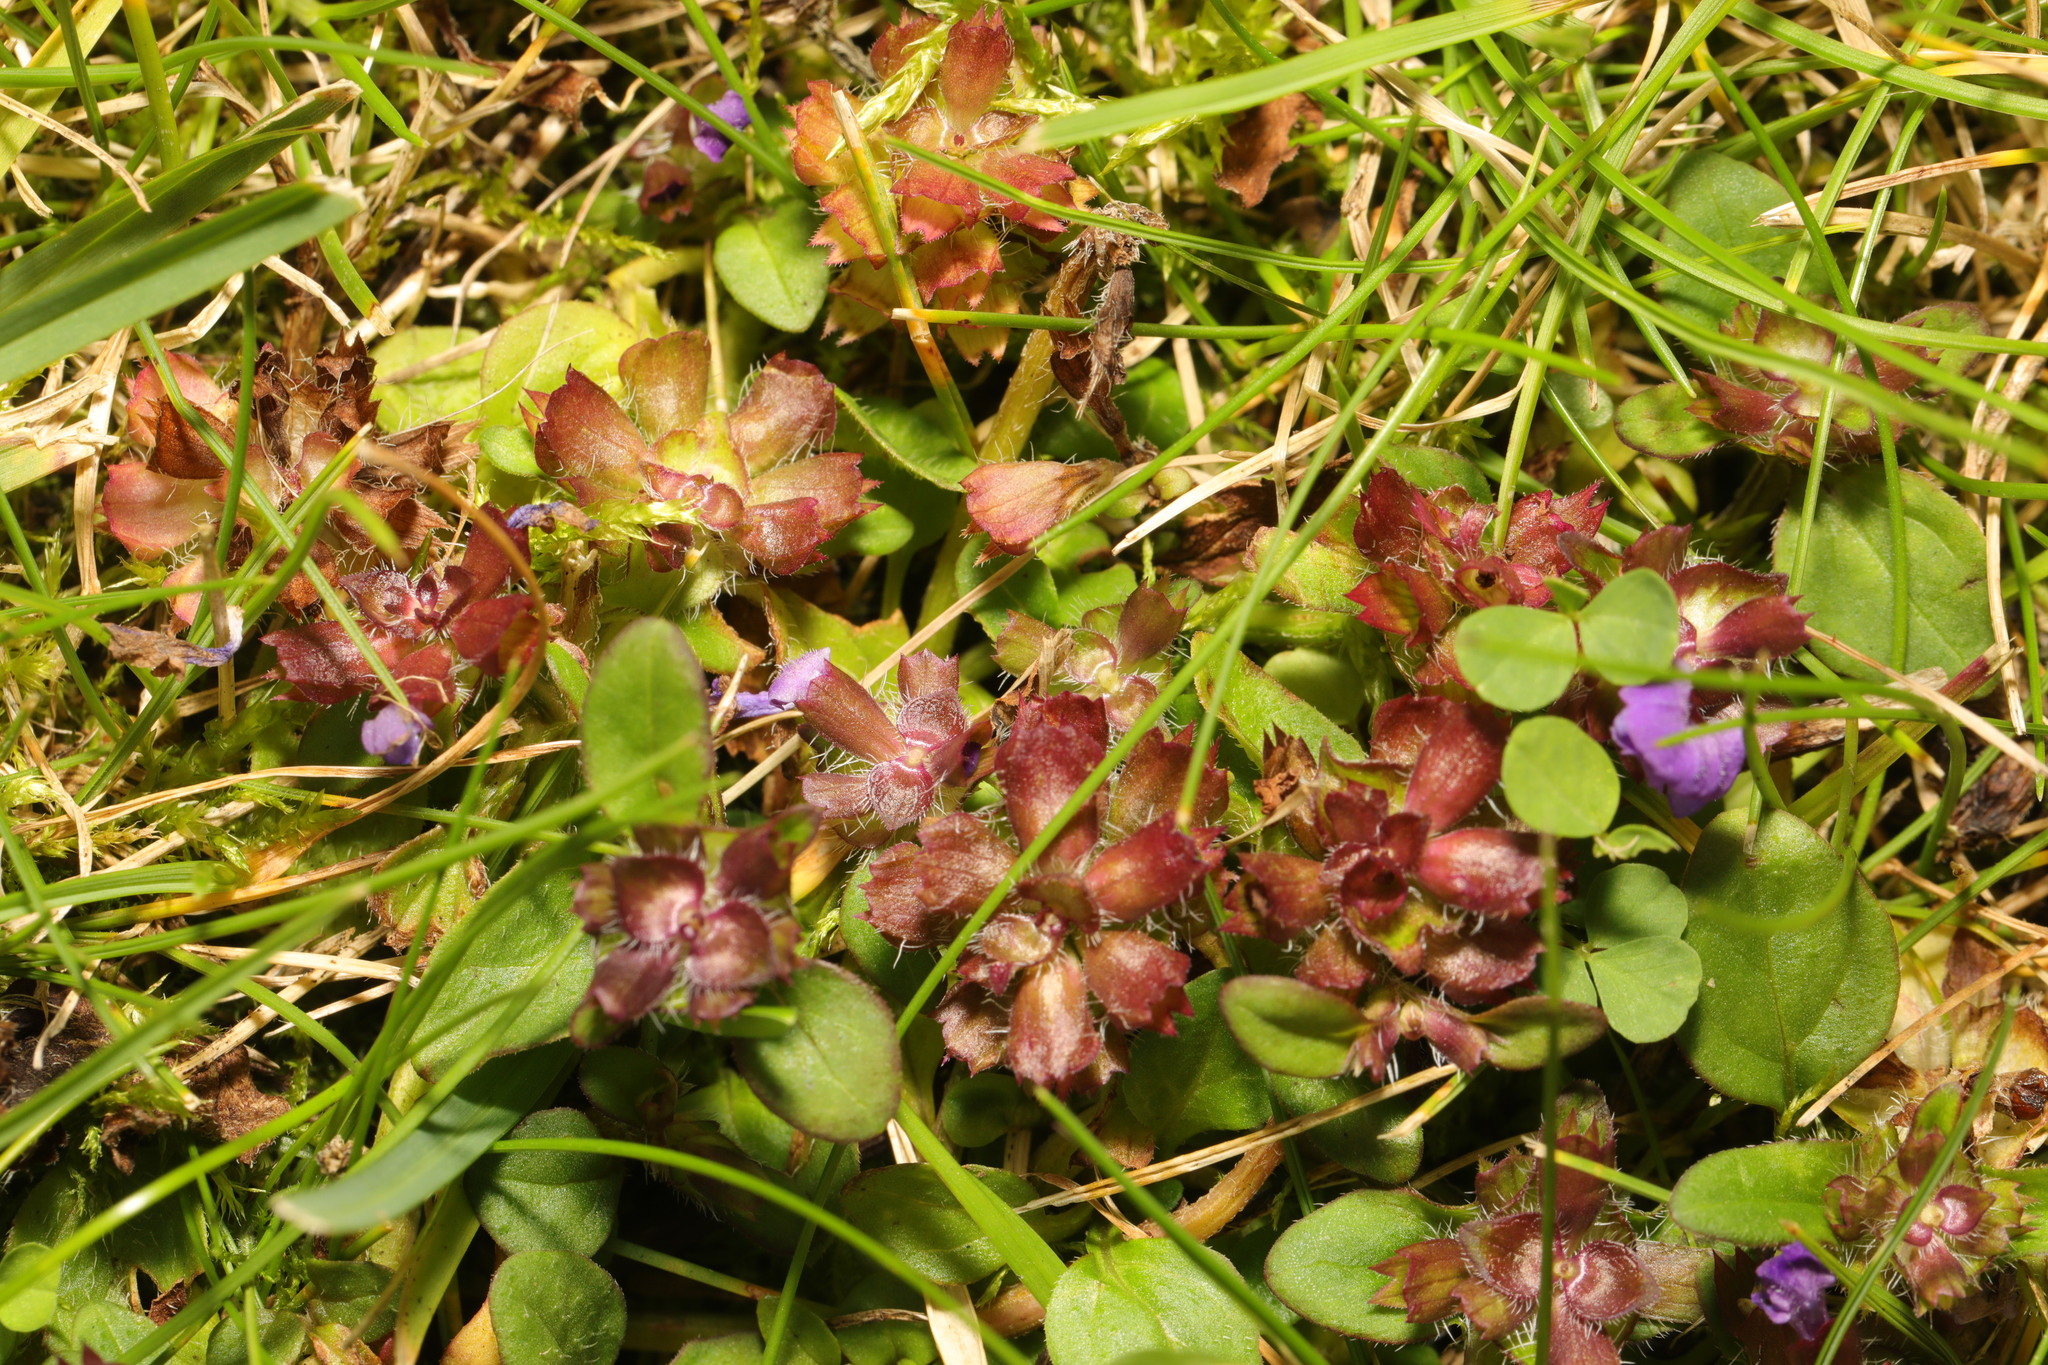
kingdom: Plantae
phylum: Tracheophyta
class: Magnoliopsida
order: Lamiales
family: Lamiaceae
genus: Prunella
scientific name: Prunella vulgaris
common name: Heal-all
